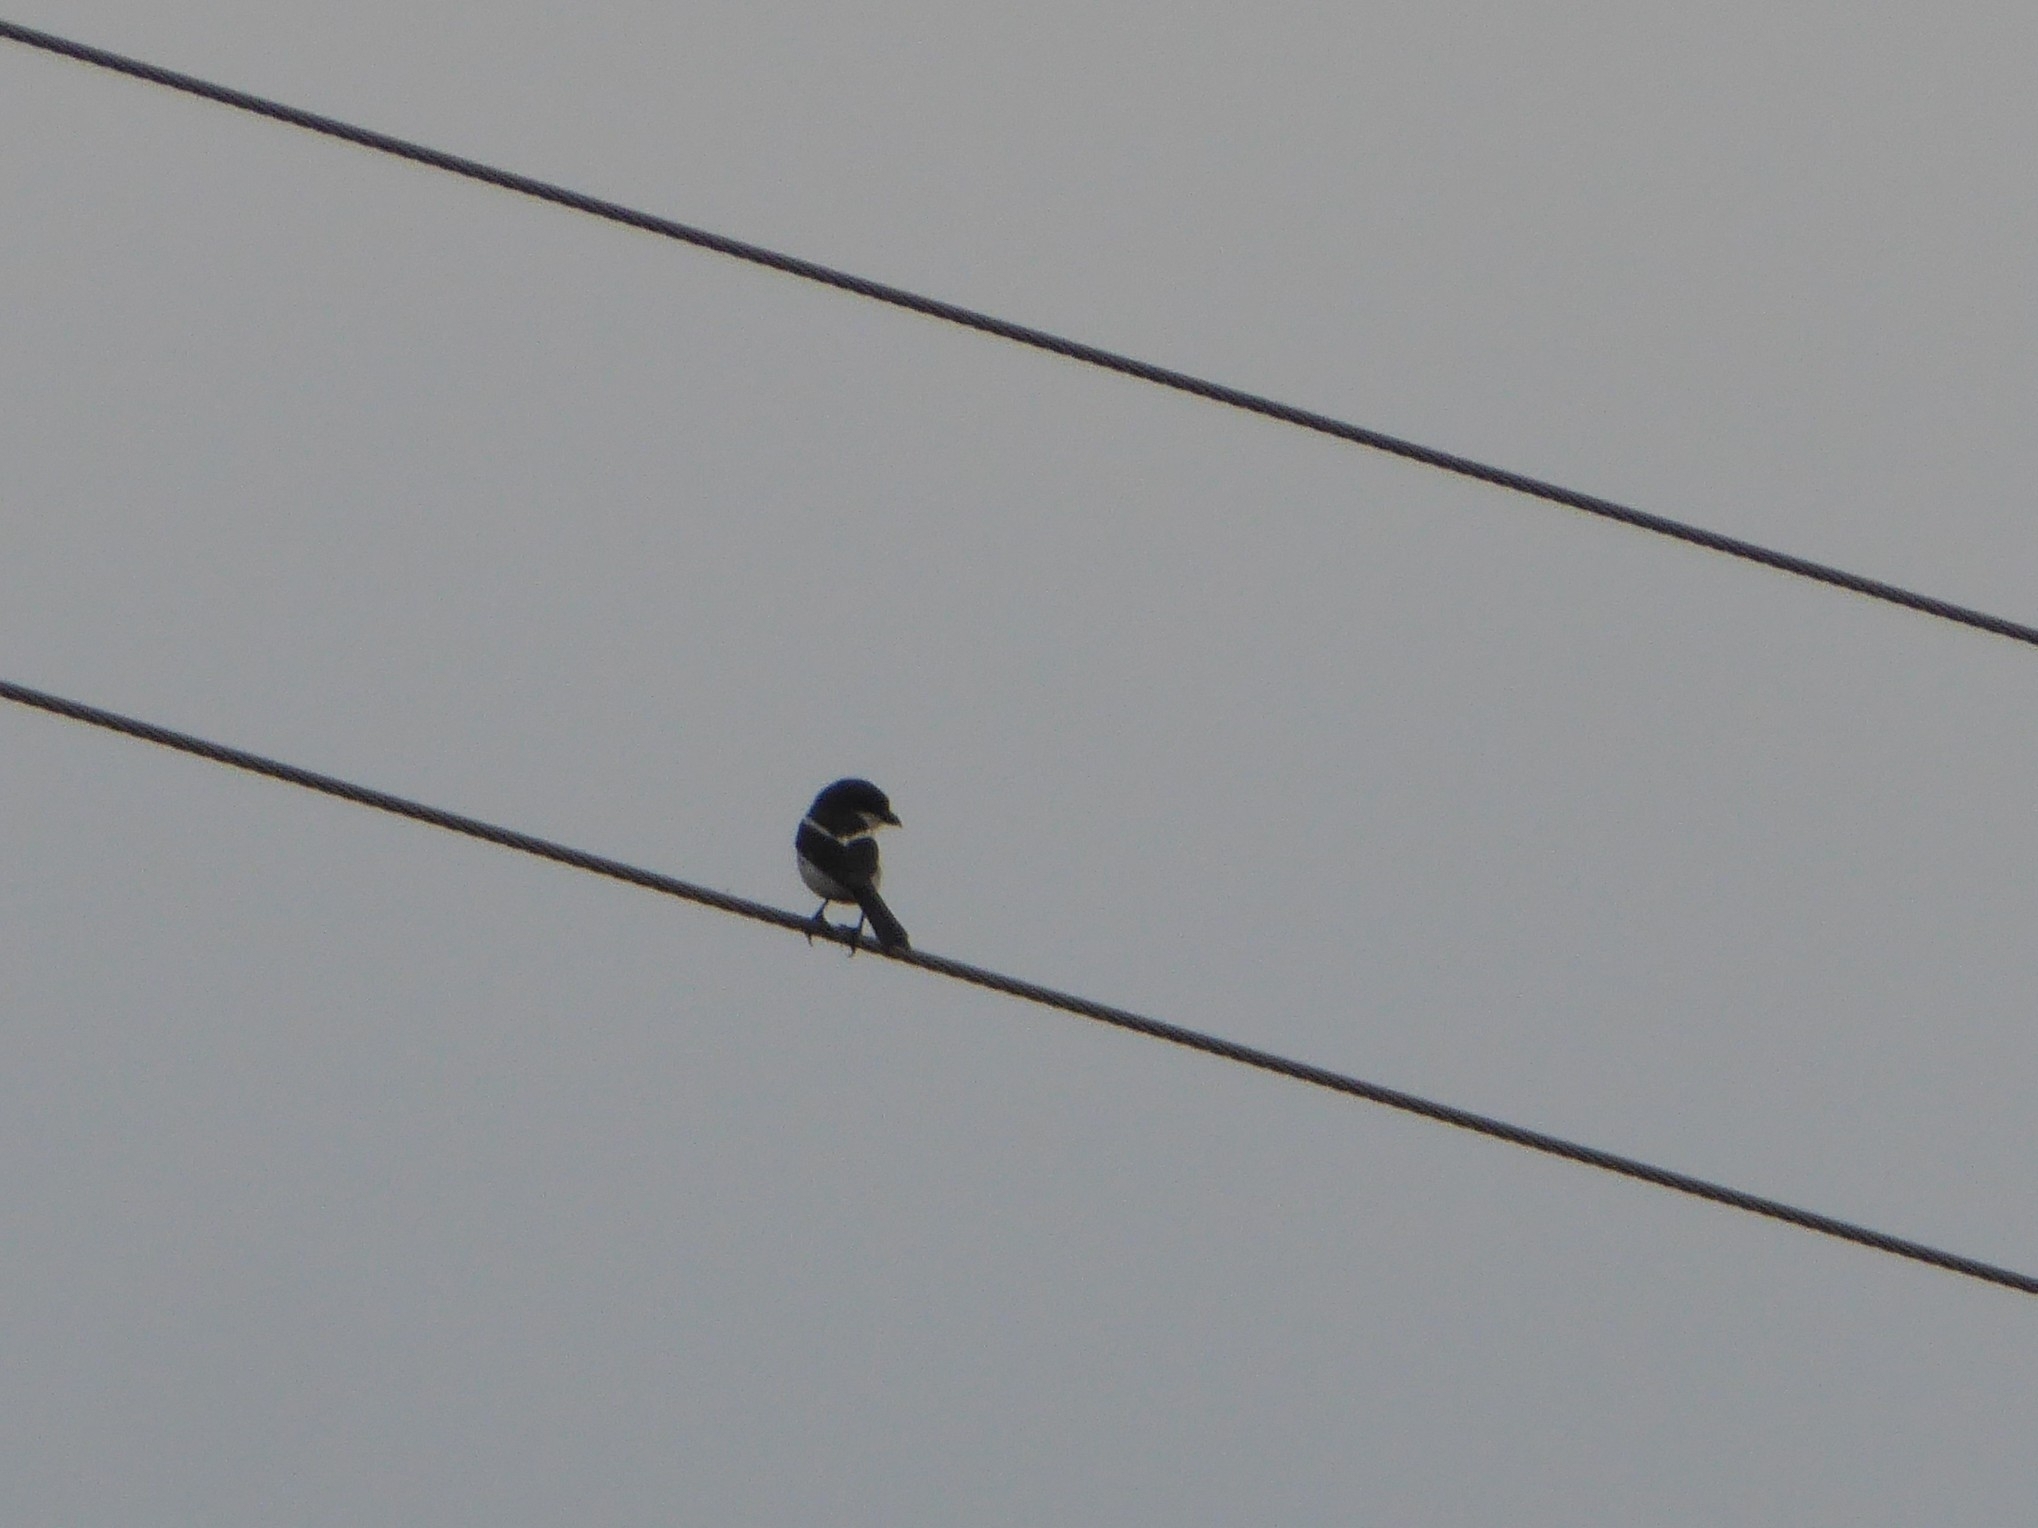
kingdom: Animalia
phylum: Chordata
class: Aves
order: Passeriformes
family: Laniidae
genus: Lanius
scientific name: Lanius collaris
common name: Southern fiscal
